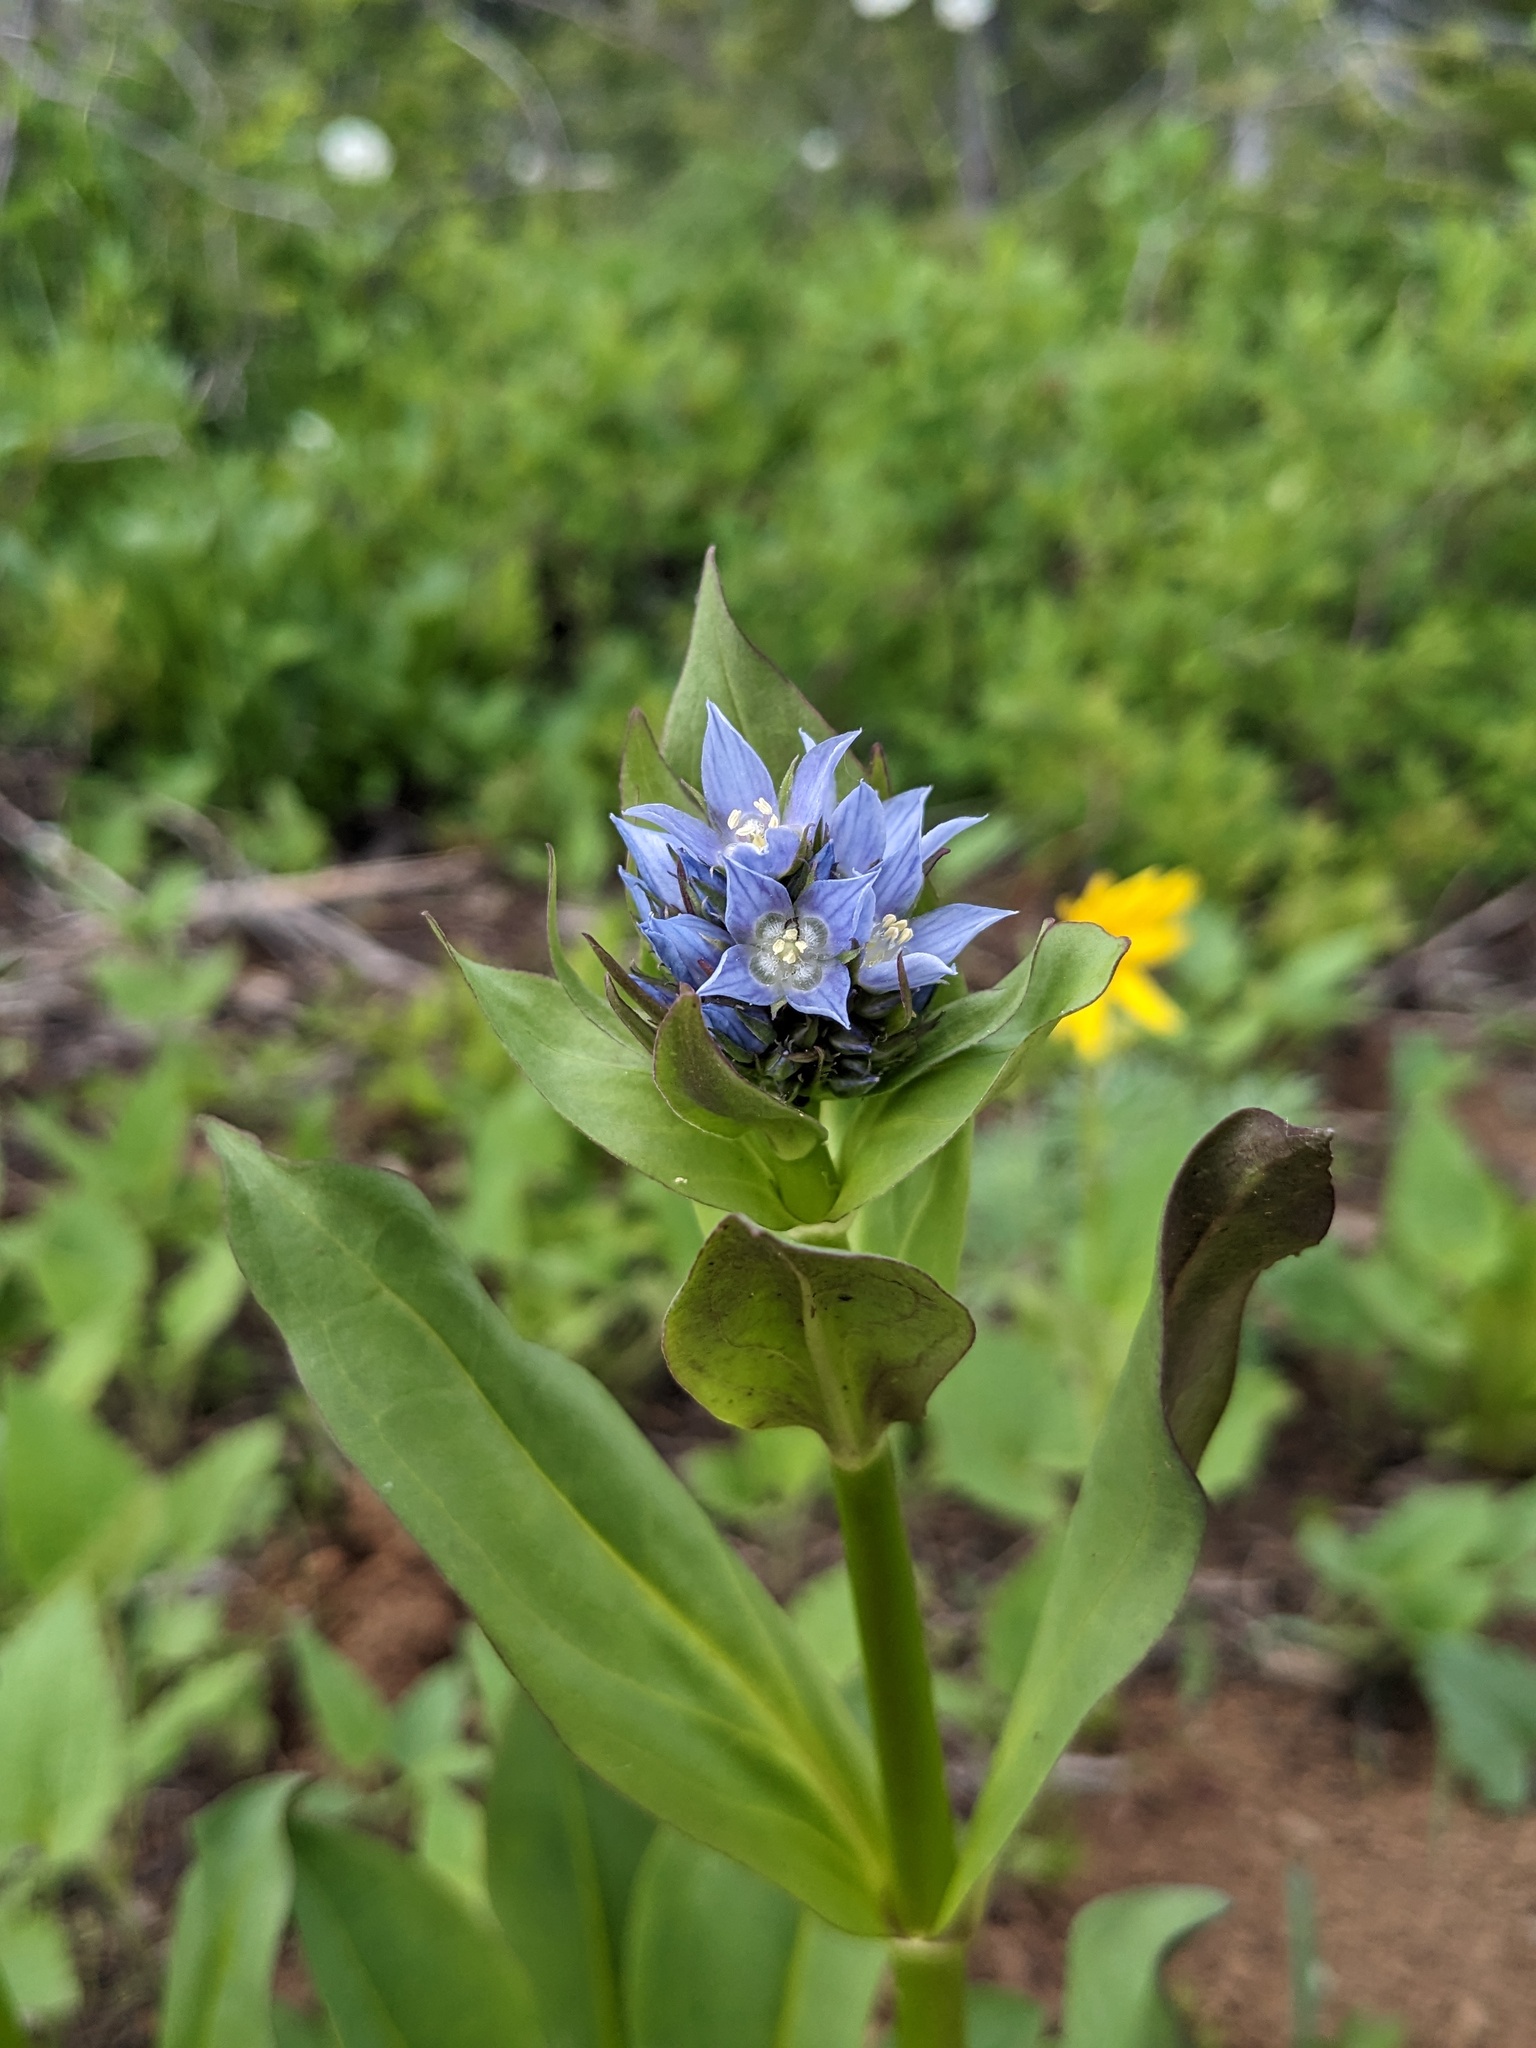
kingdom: Plantae
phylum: Tracheophyta
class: Magnoliopsida
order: Gentianales
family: Gentianaceae
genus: Frasera
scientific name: Frasera fastigiata
